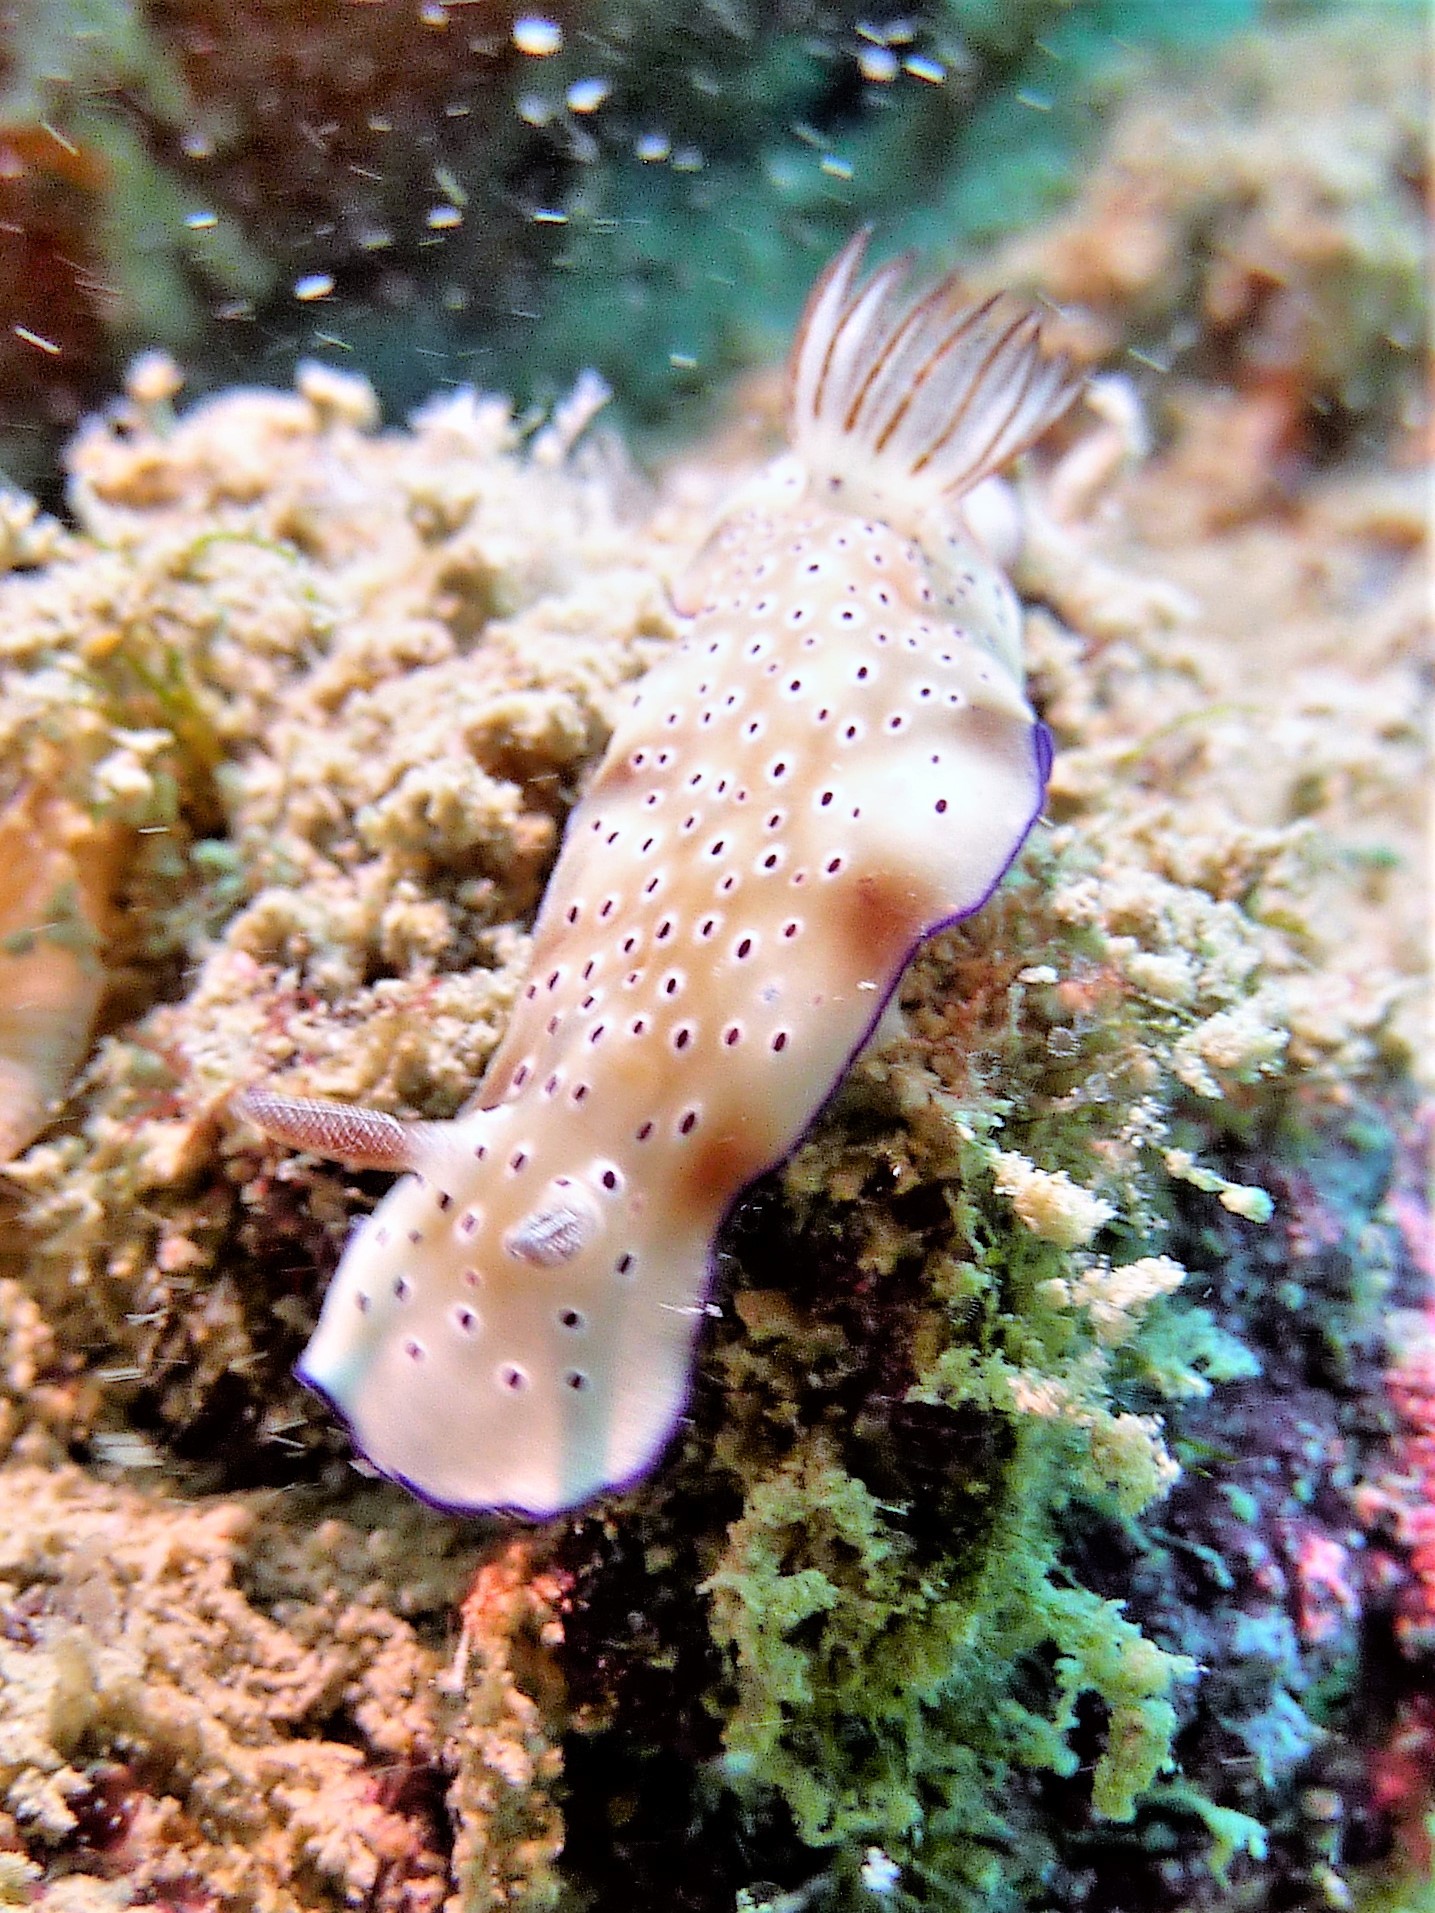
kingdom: Animalia
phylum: Mollusca
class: Gastropoda
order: Nudibranchia
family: Chromodorididae
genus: Hypselodoris
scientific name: Hypselodoris tryoni
